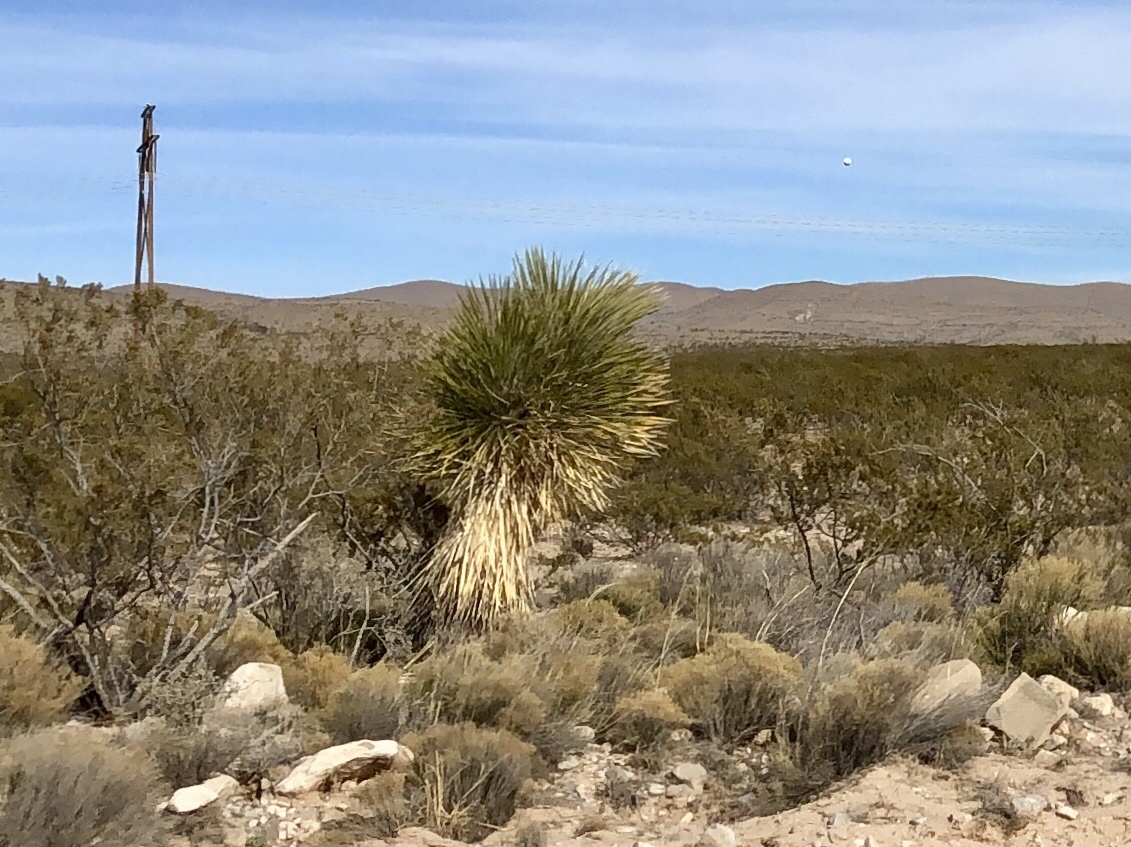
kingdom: Plantae
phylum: Tracheophyta
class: Liliopsida
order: Asparagales
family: Asparagaceae
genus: Yucca
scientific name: Yucca elata
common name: Palmella
